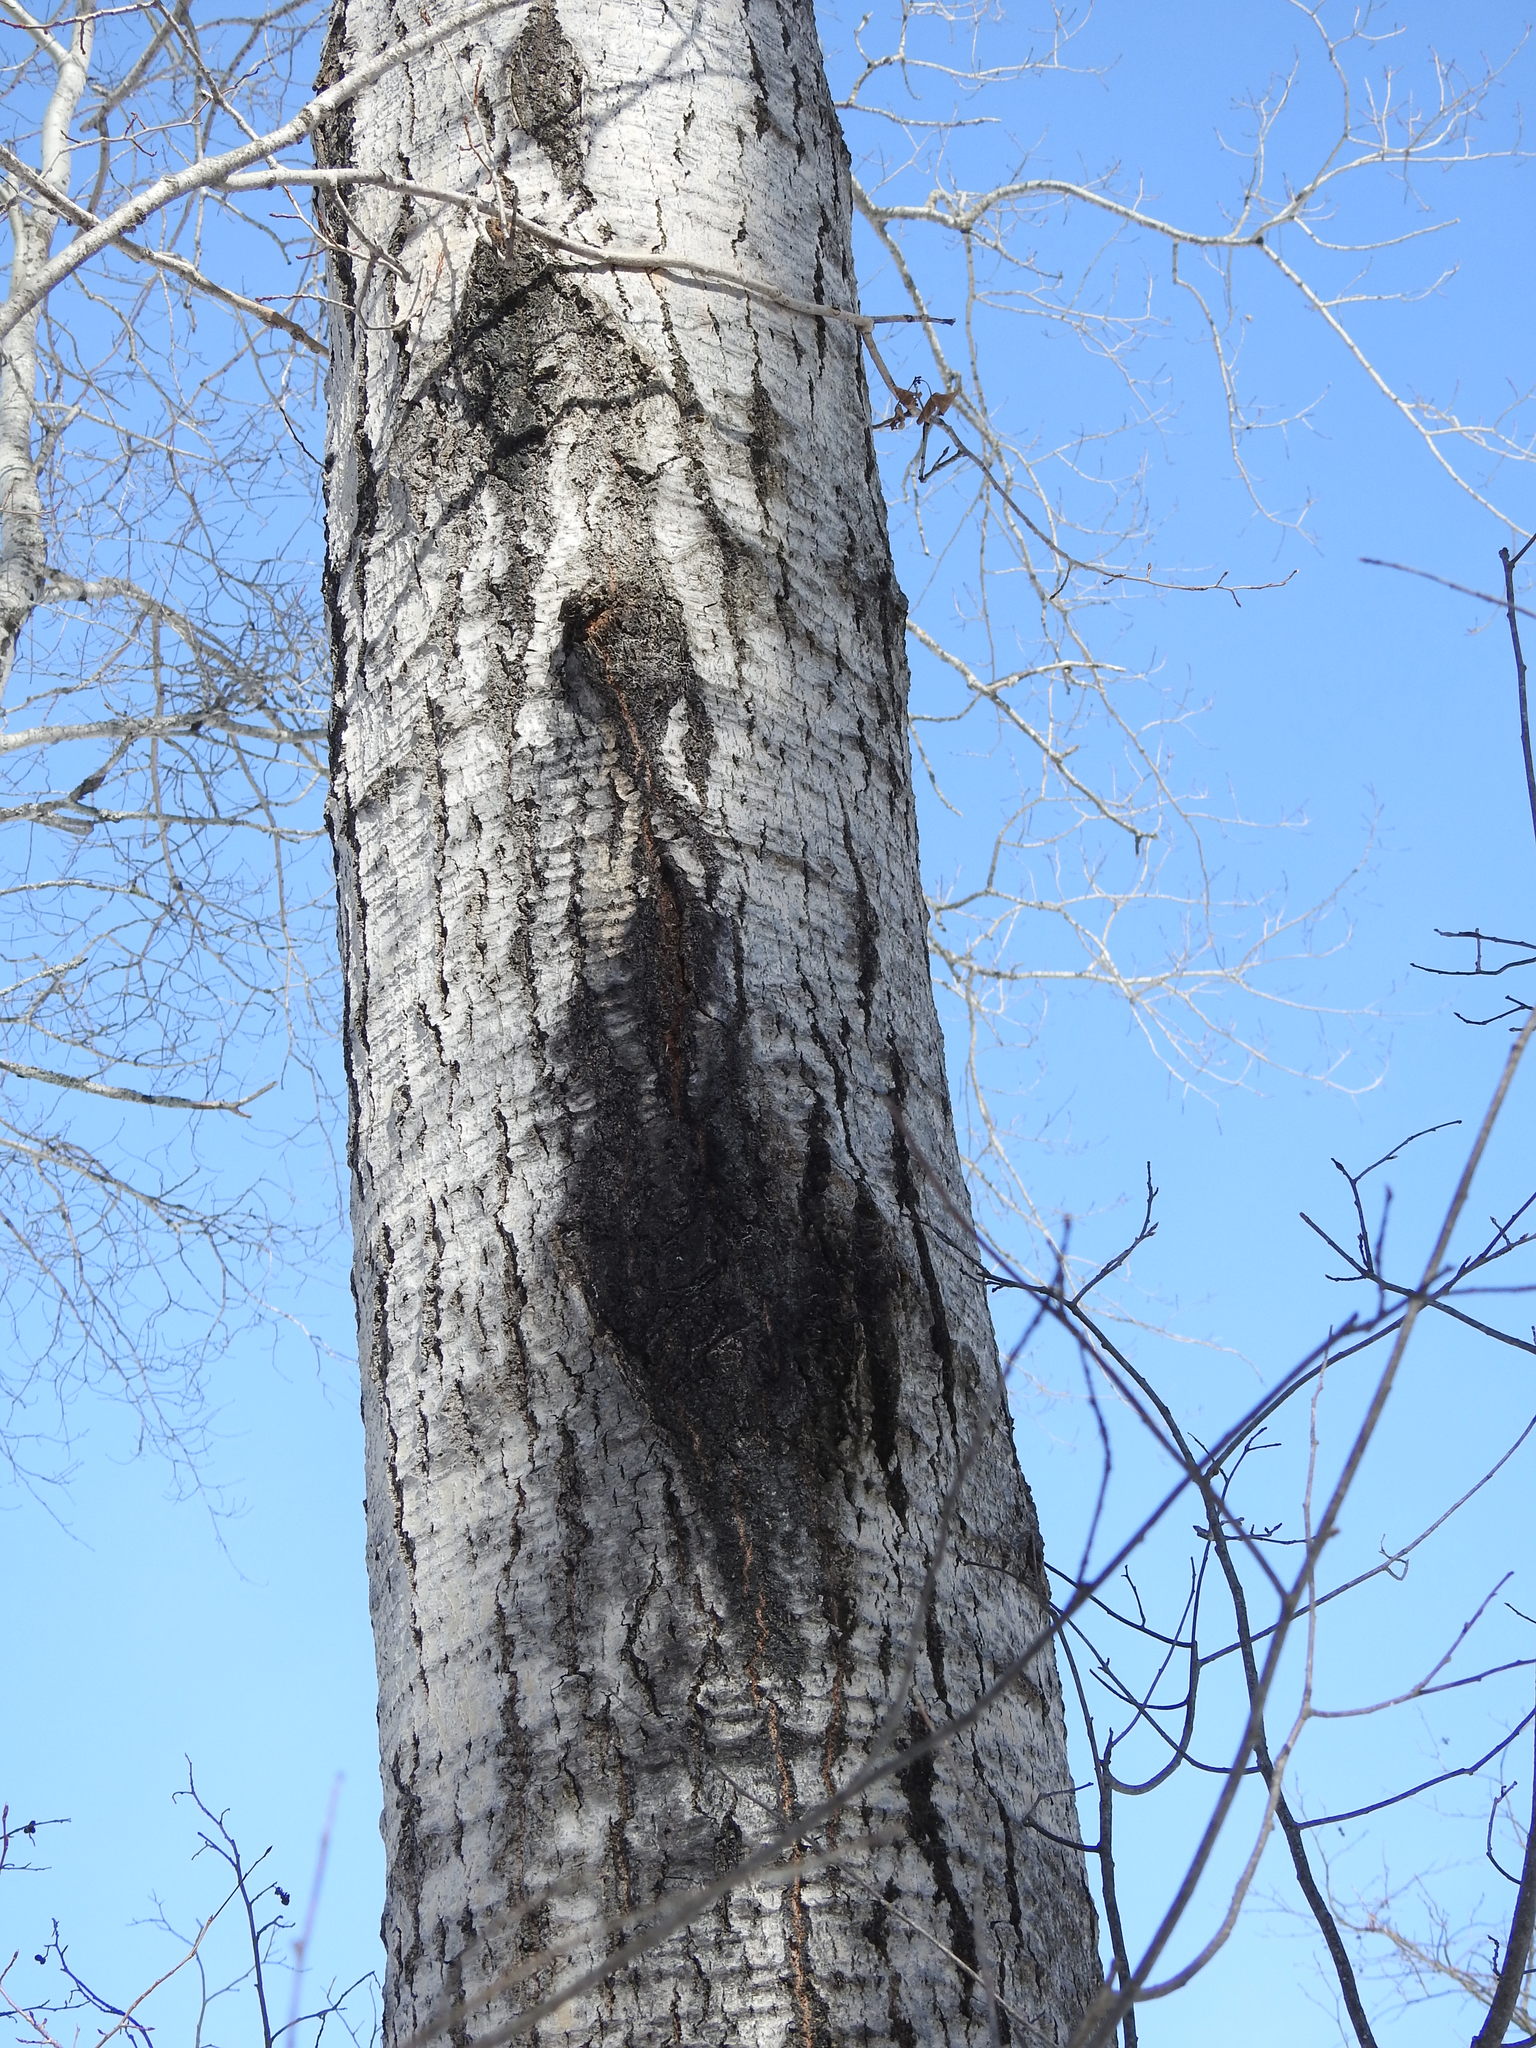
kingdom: Plantae
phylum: Tracheophyta
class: Magnoliopsida
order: Malpighiales
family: Salicaceae
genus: Populus
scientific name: Populus tremuloides
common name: Quaking aspen
